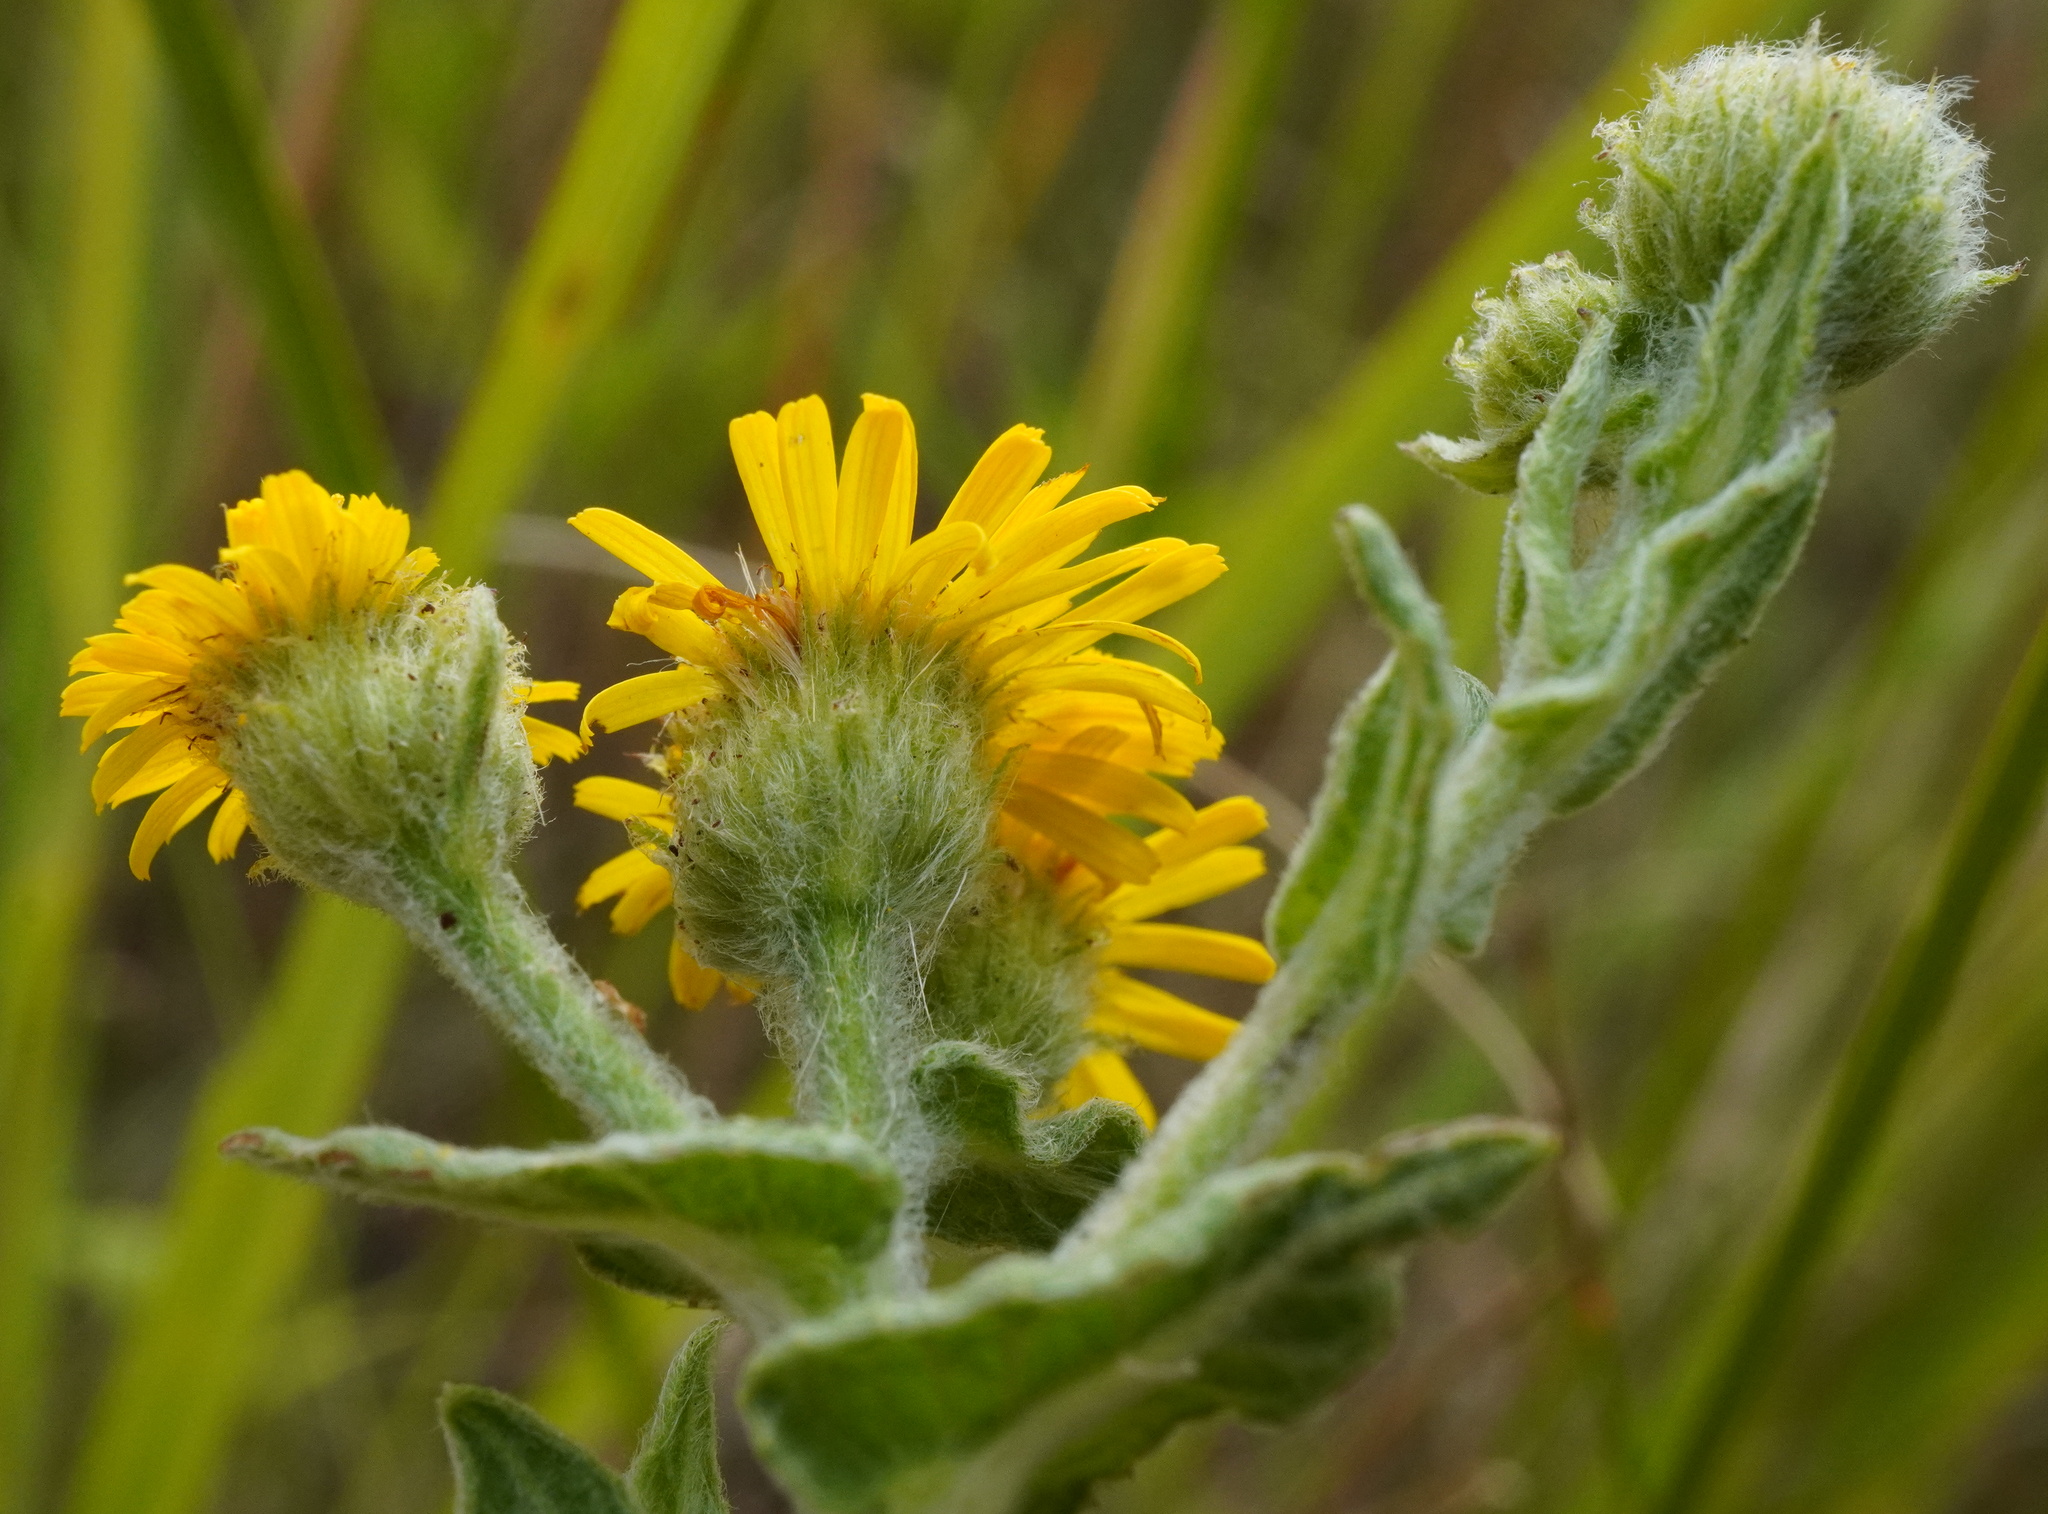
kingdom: Plantae
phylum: Tracheophyta
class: Magnoliopsida
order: Asterales
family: Asteraceae
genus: Pulicaria
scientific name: Pulicaria dysenterica
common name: Common fleabane
